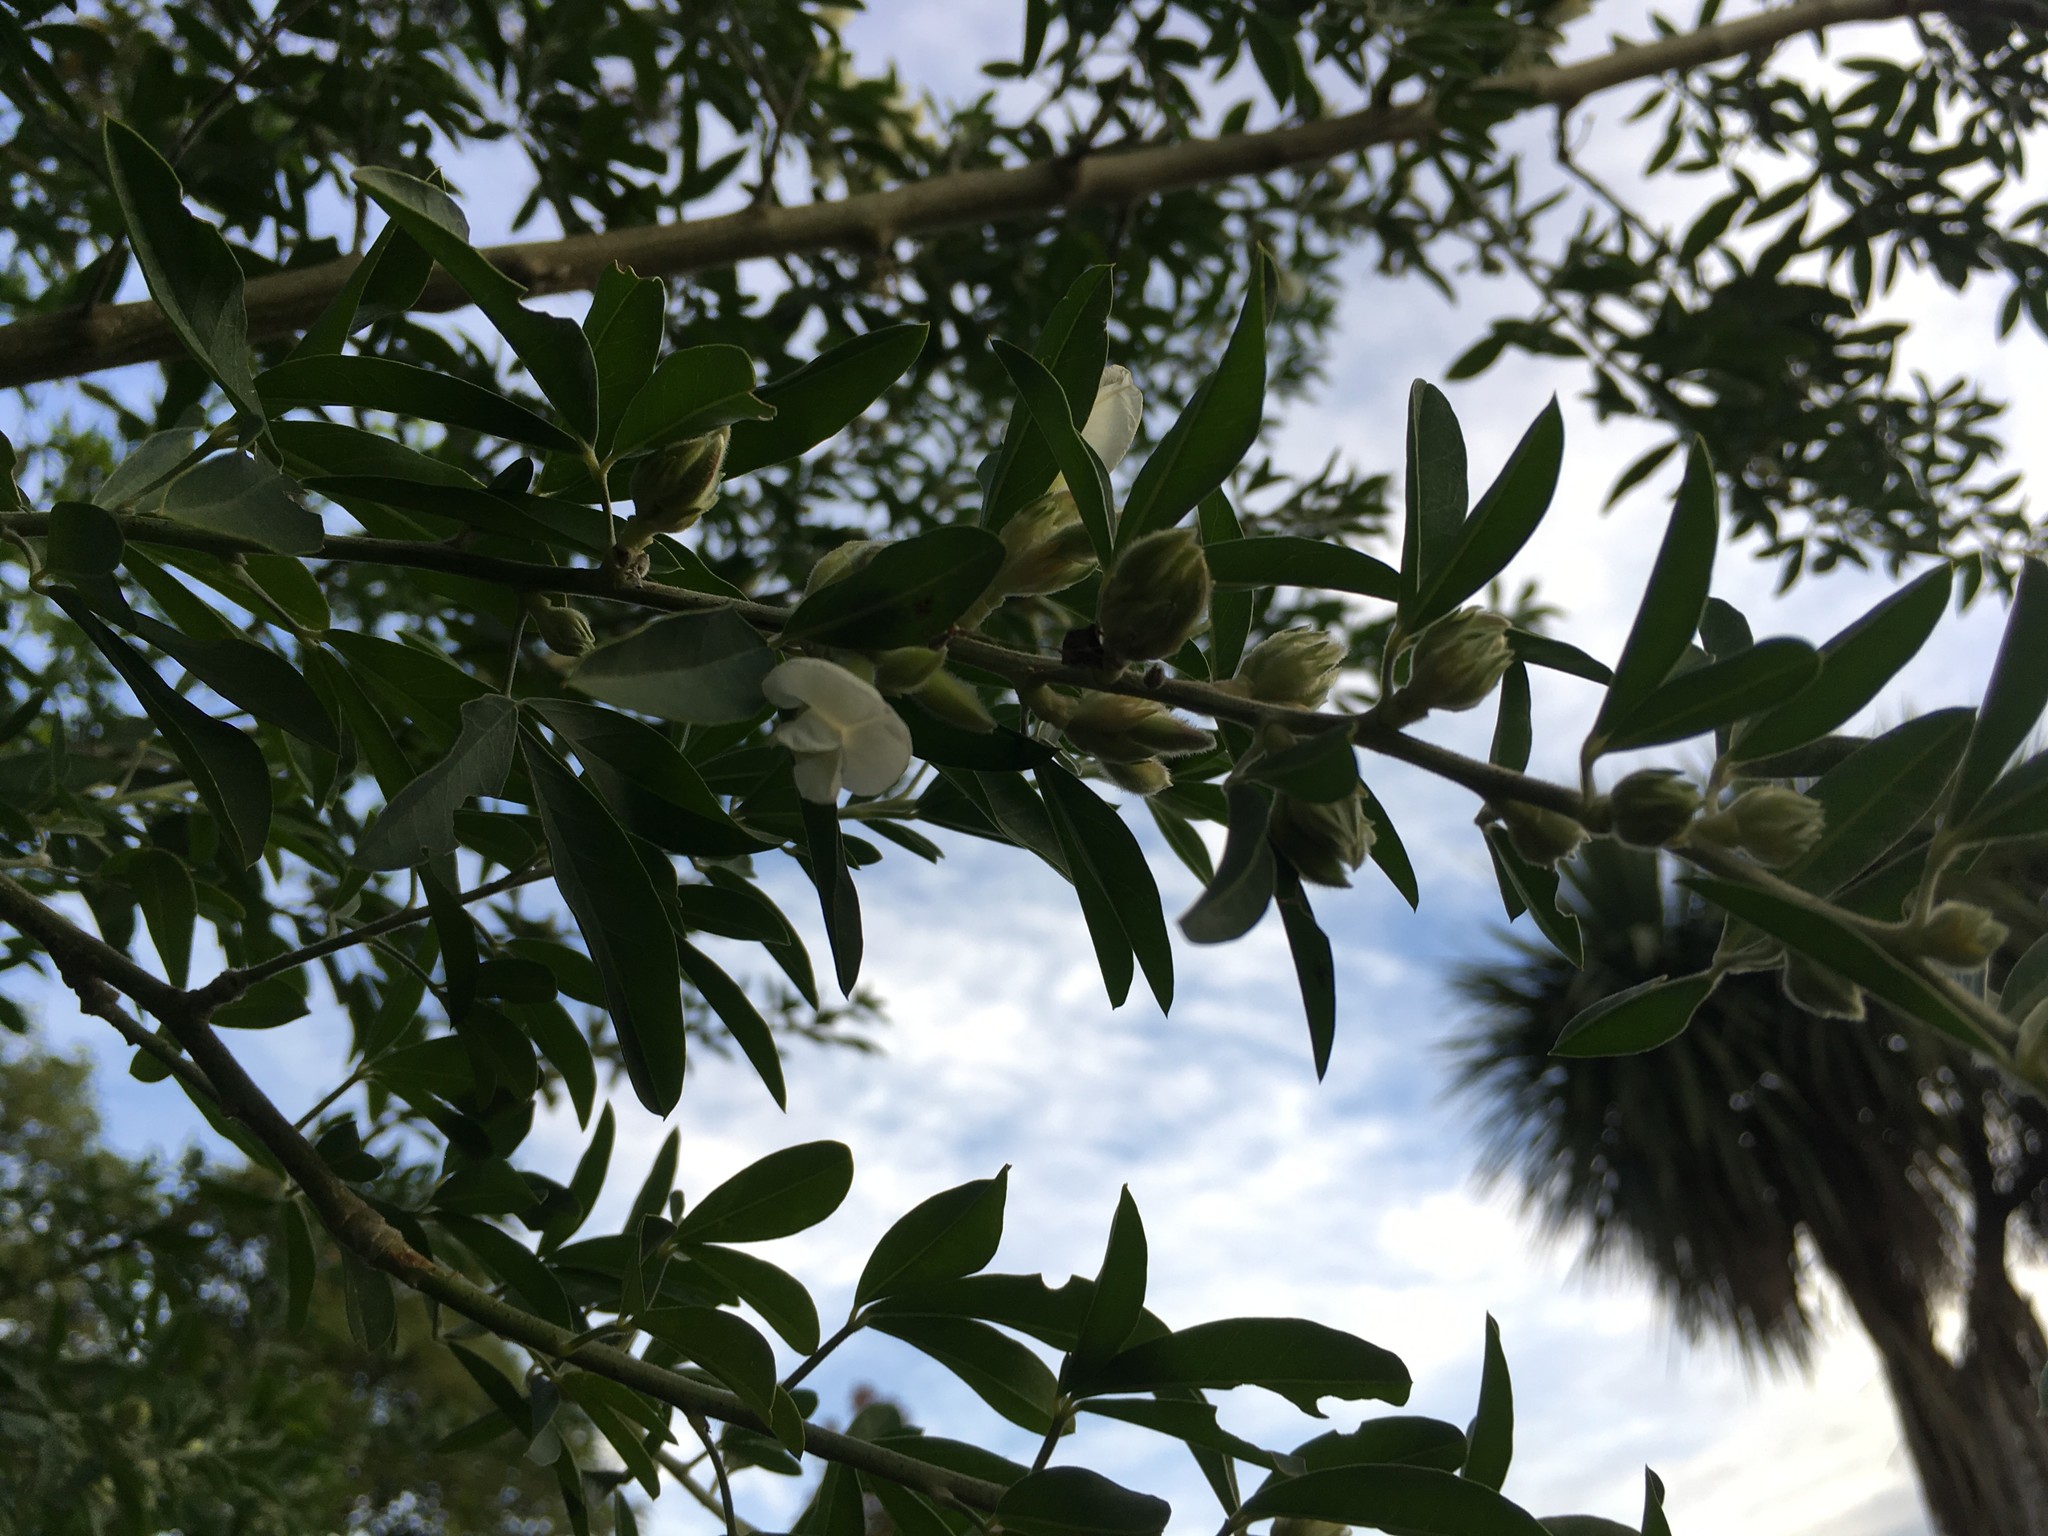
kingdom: Plantae
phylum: Tracheophyta
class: Magnoliopsida
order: Fabales
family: Fabaceae
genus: Chamaecytisus
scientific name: Chamaecytisus prolifer
